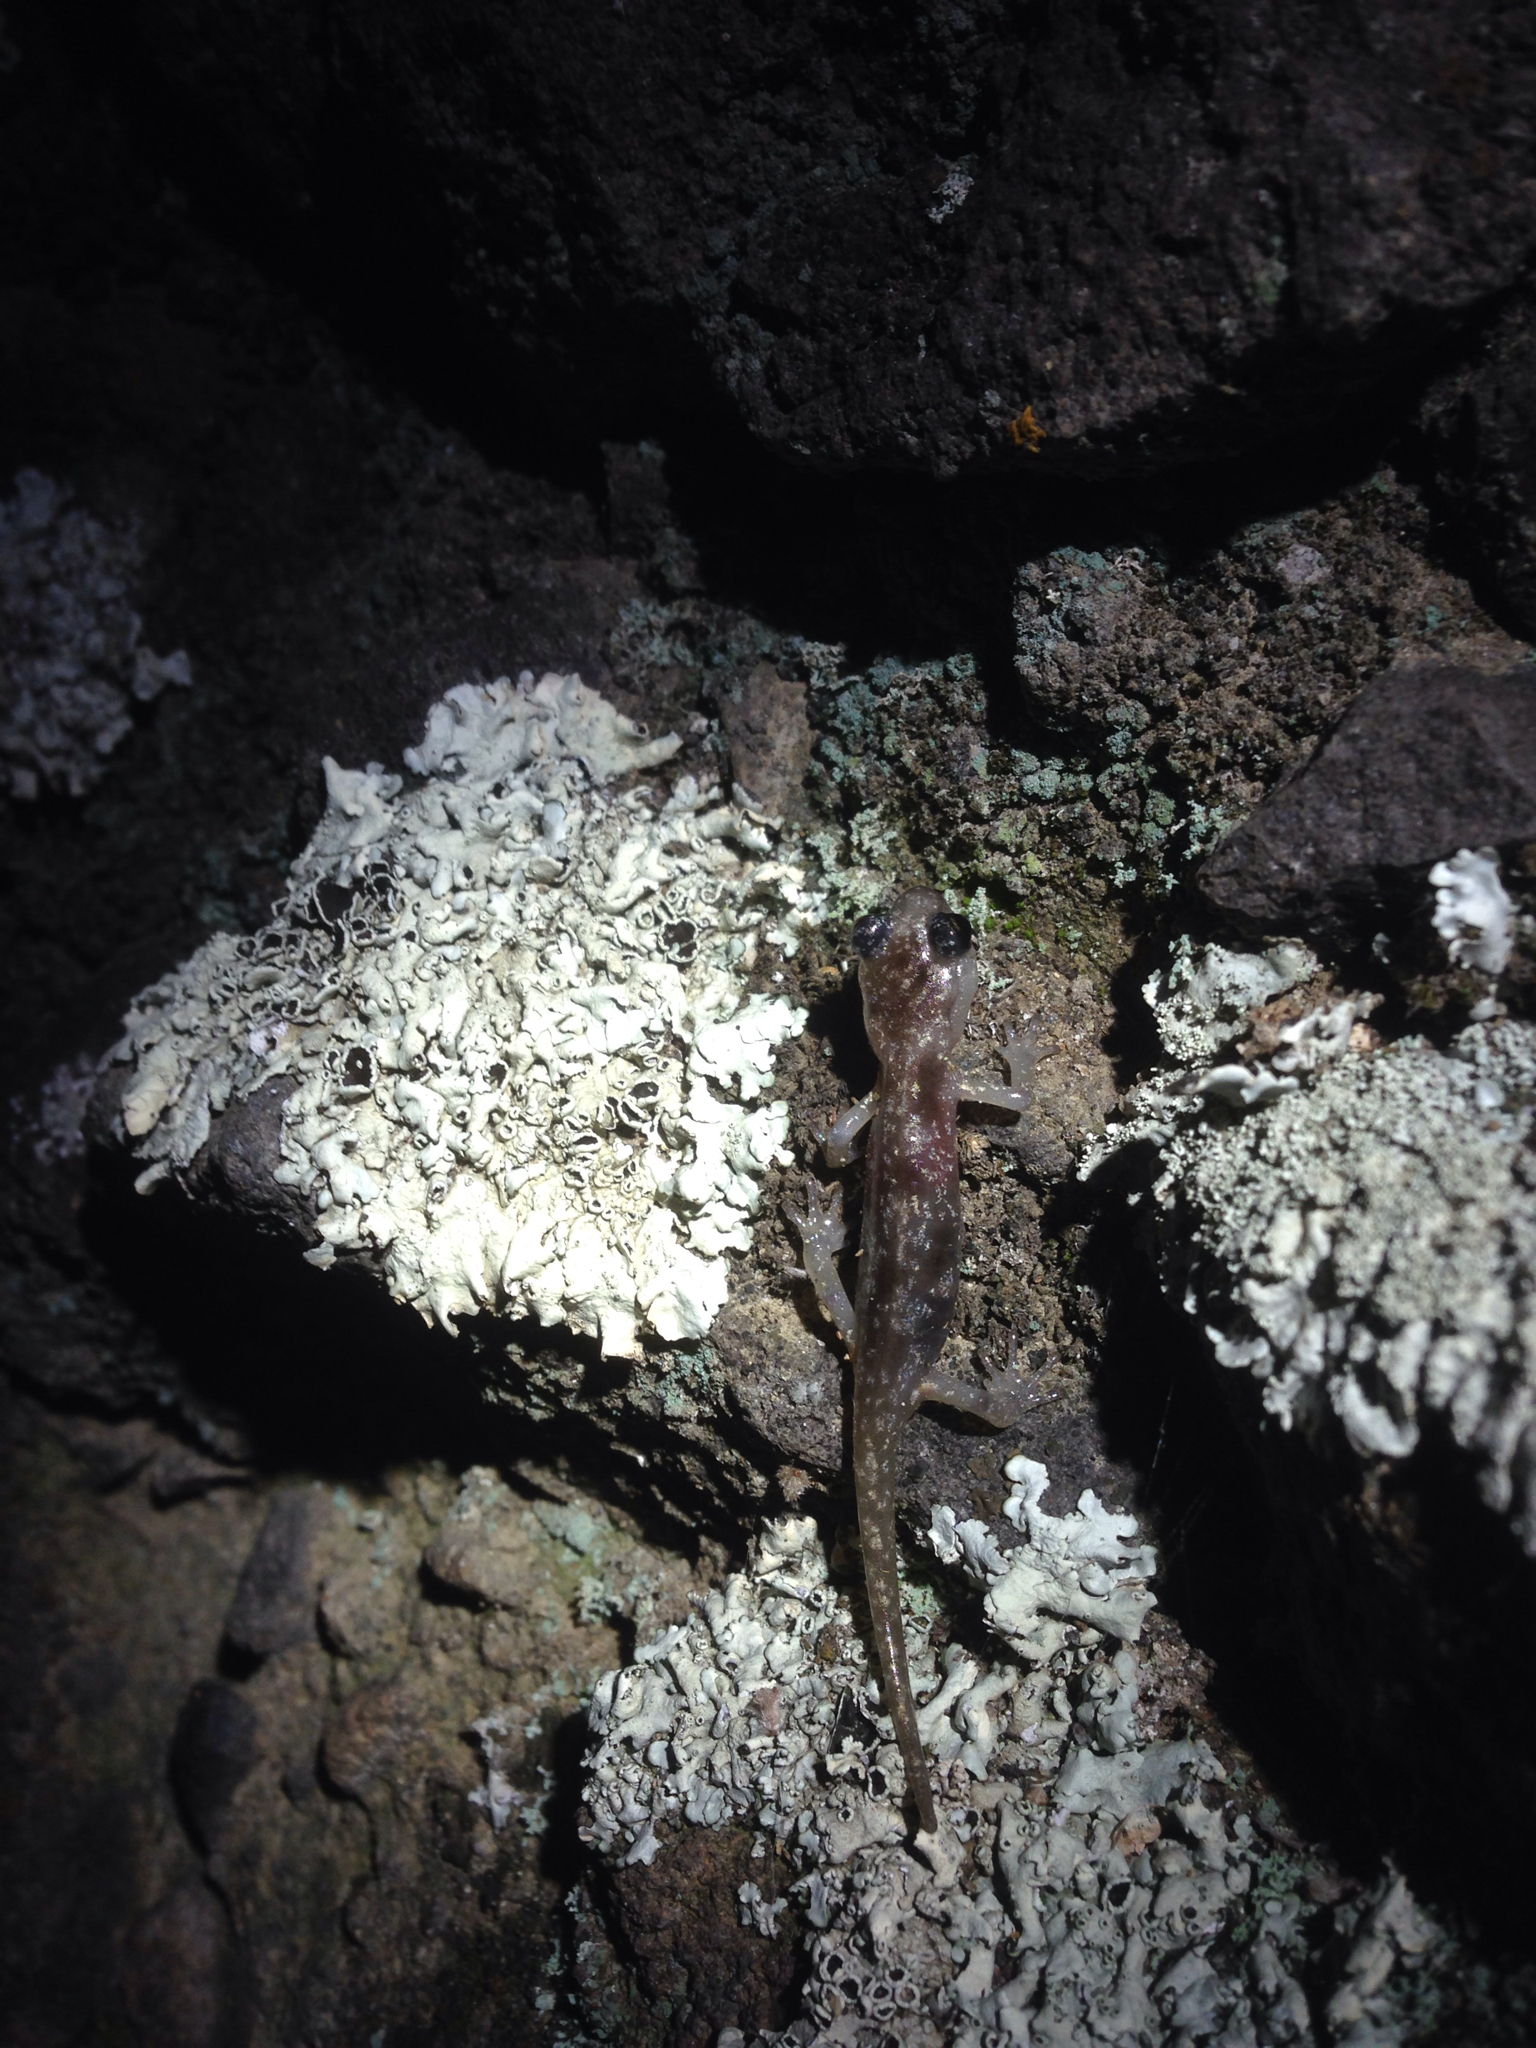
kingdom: Animalia
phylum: Chordata
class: Amphibia
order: Caudata
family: Plethodontidae
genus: Aneides
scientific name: Aneides lugubris
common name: Arboreal salamander
